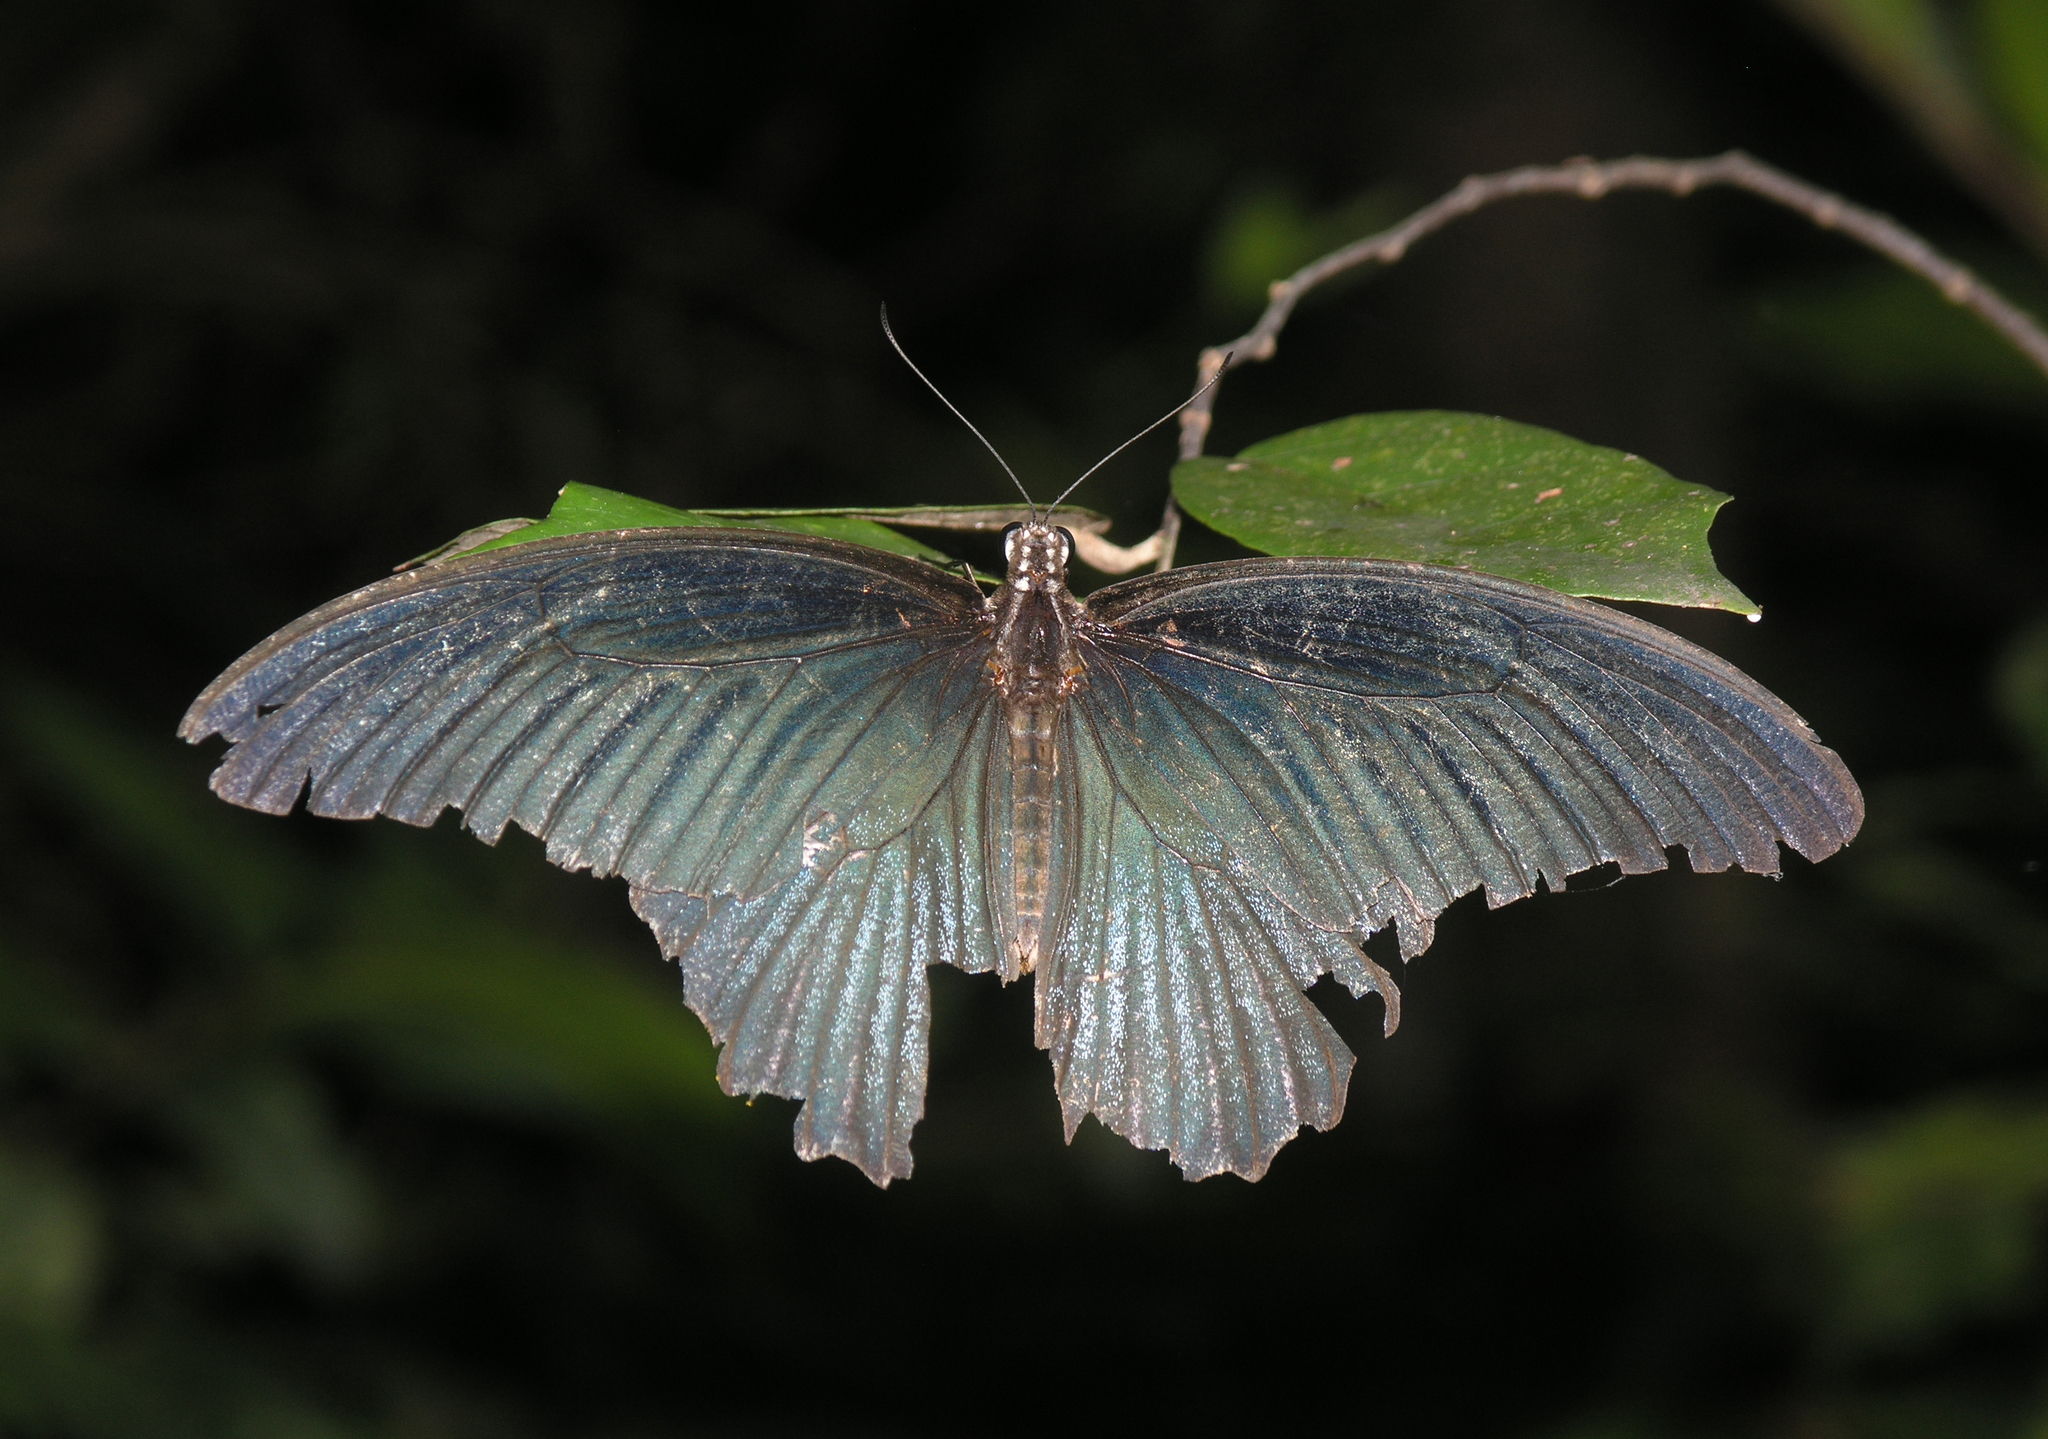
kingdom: Animalia
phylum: Arthropoda
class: Insecta
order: Lepidoptera
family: Papilionidae
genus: Papilio
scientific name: Papilio memnon
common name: Great mormon
